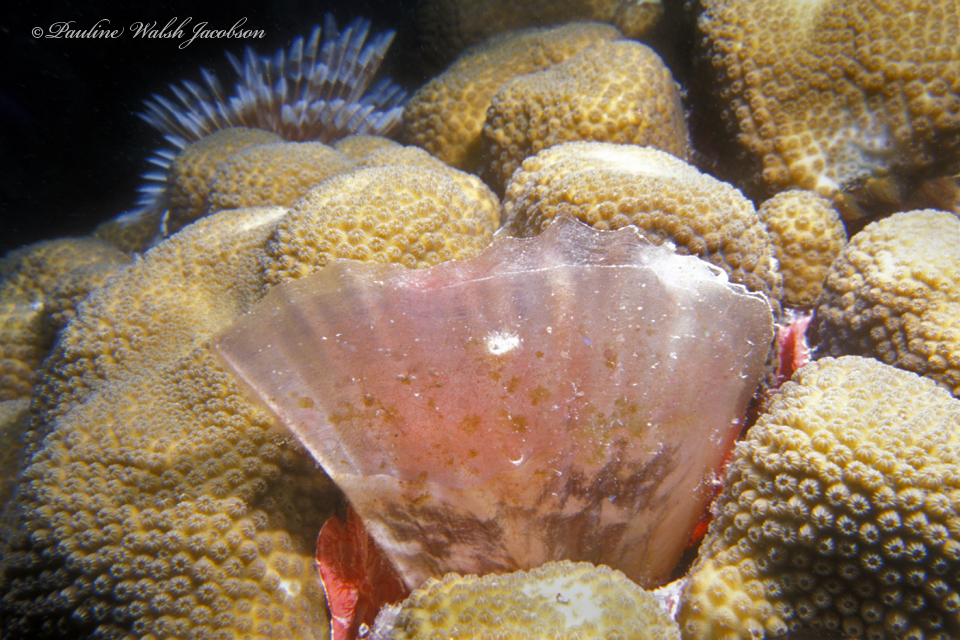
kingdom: Animalia
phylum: Mollusca
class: Bivalvia
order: Ostreida
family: Pinnidae
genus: Pinna
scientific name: Pinna carnea
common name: Amber penshell
